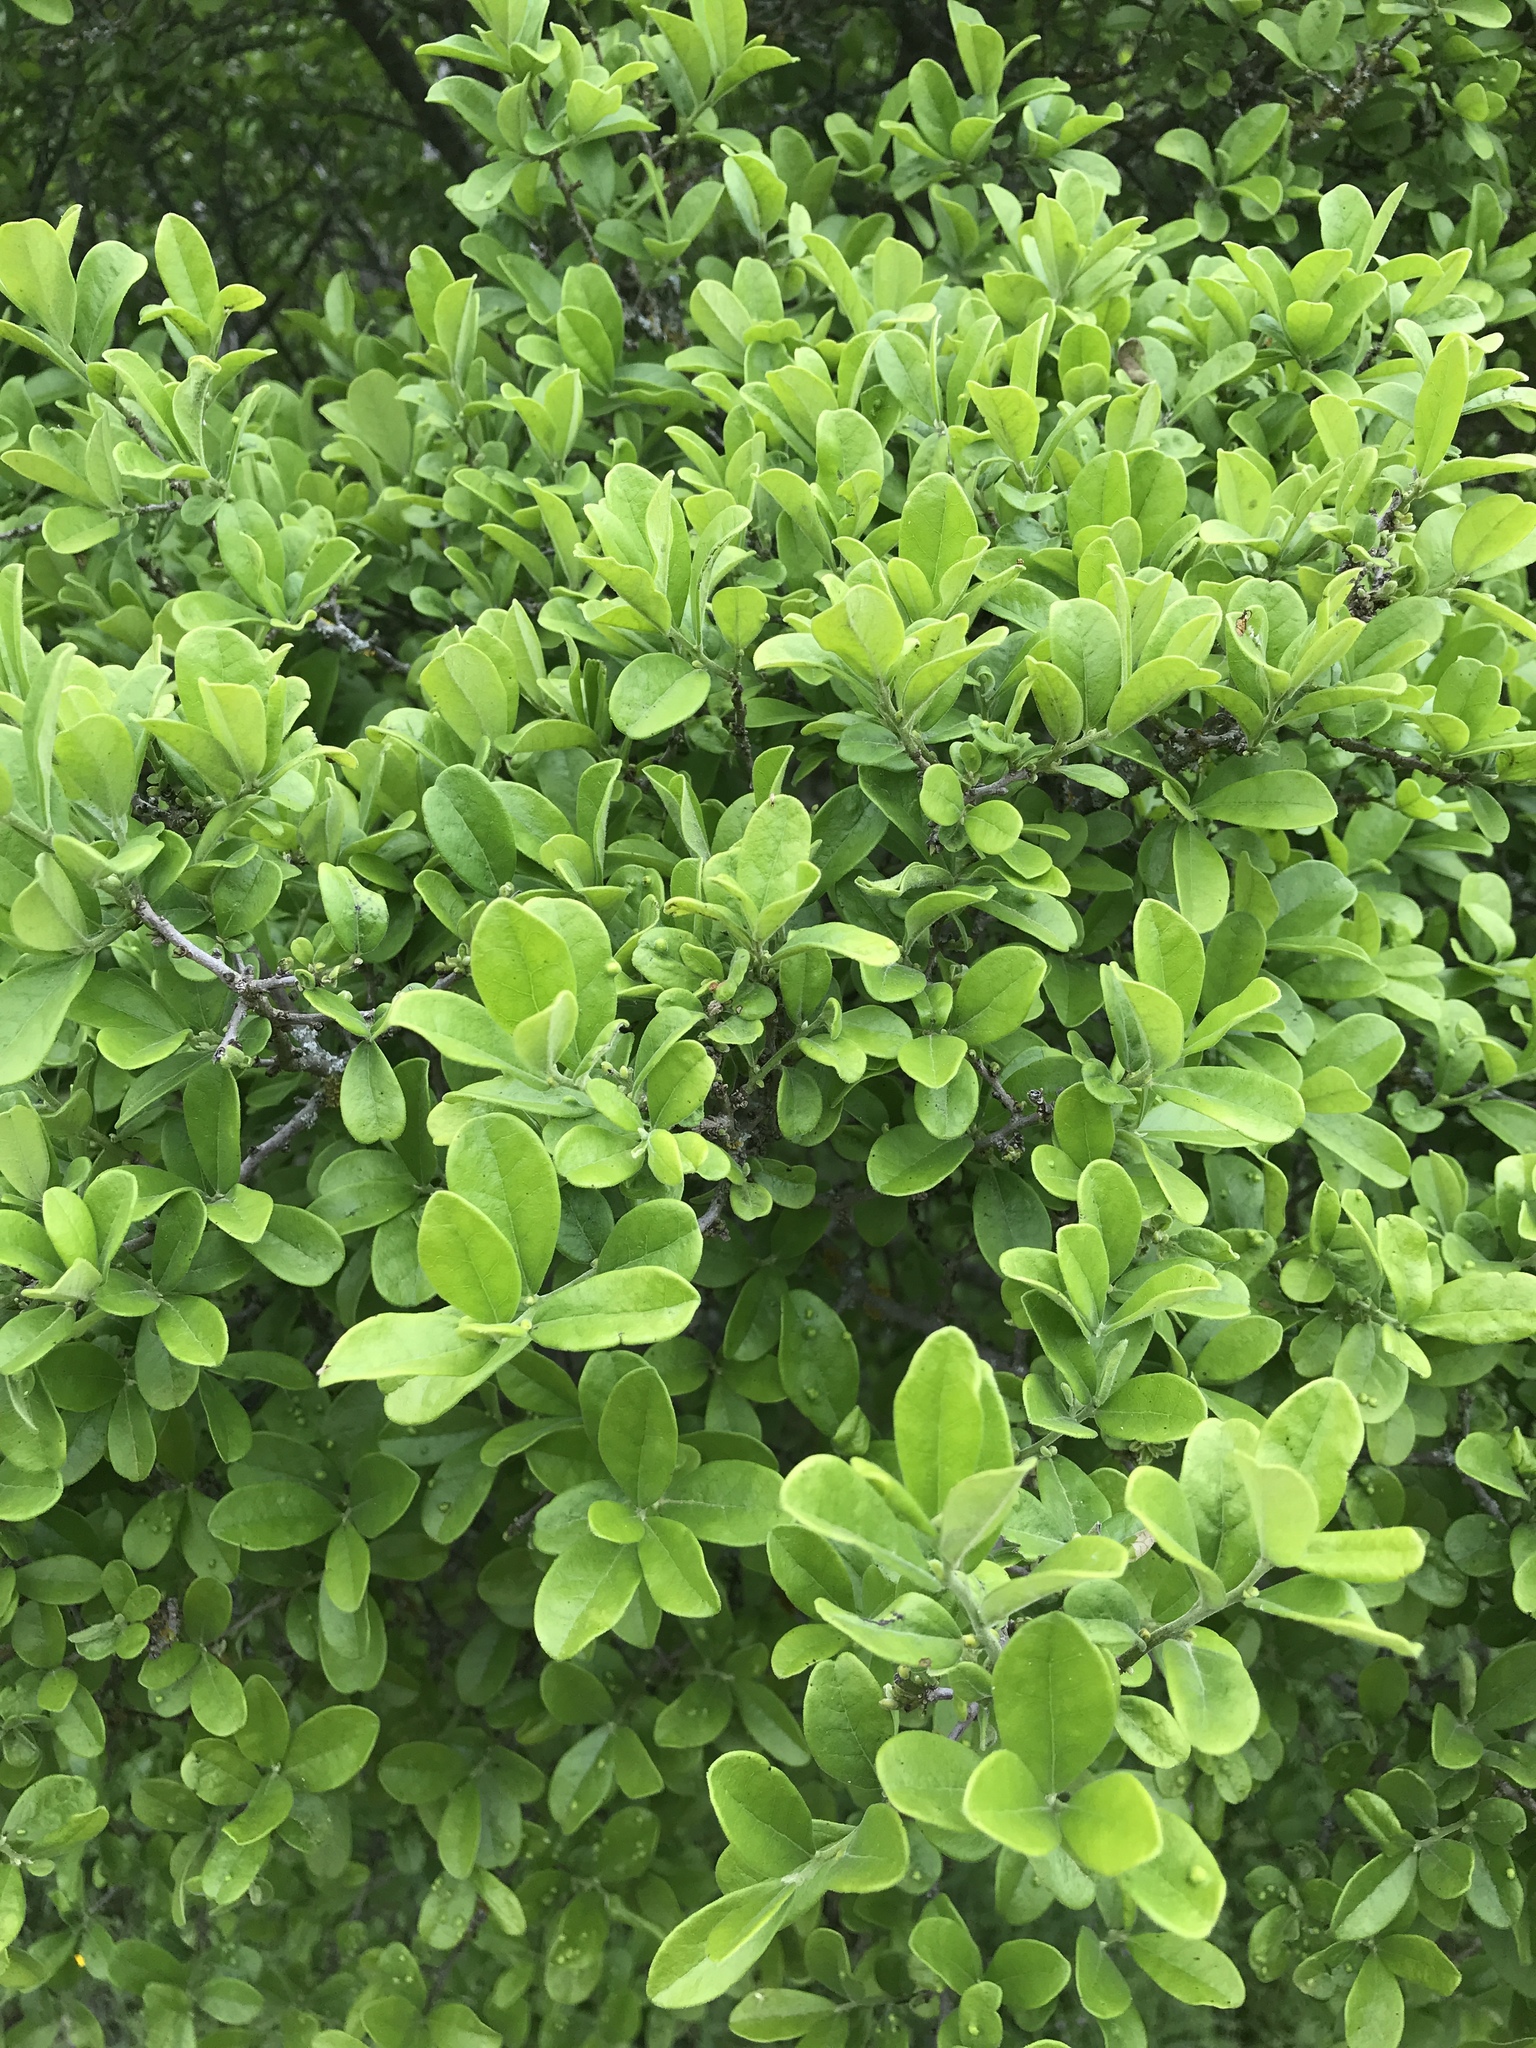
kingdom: Plantae
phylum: Tracheophyta
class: Magnoliopsida
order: Ericales
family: Ebenaceae
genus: Diospyros
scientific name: Diospyros texana
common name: Texas persimmon
